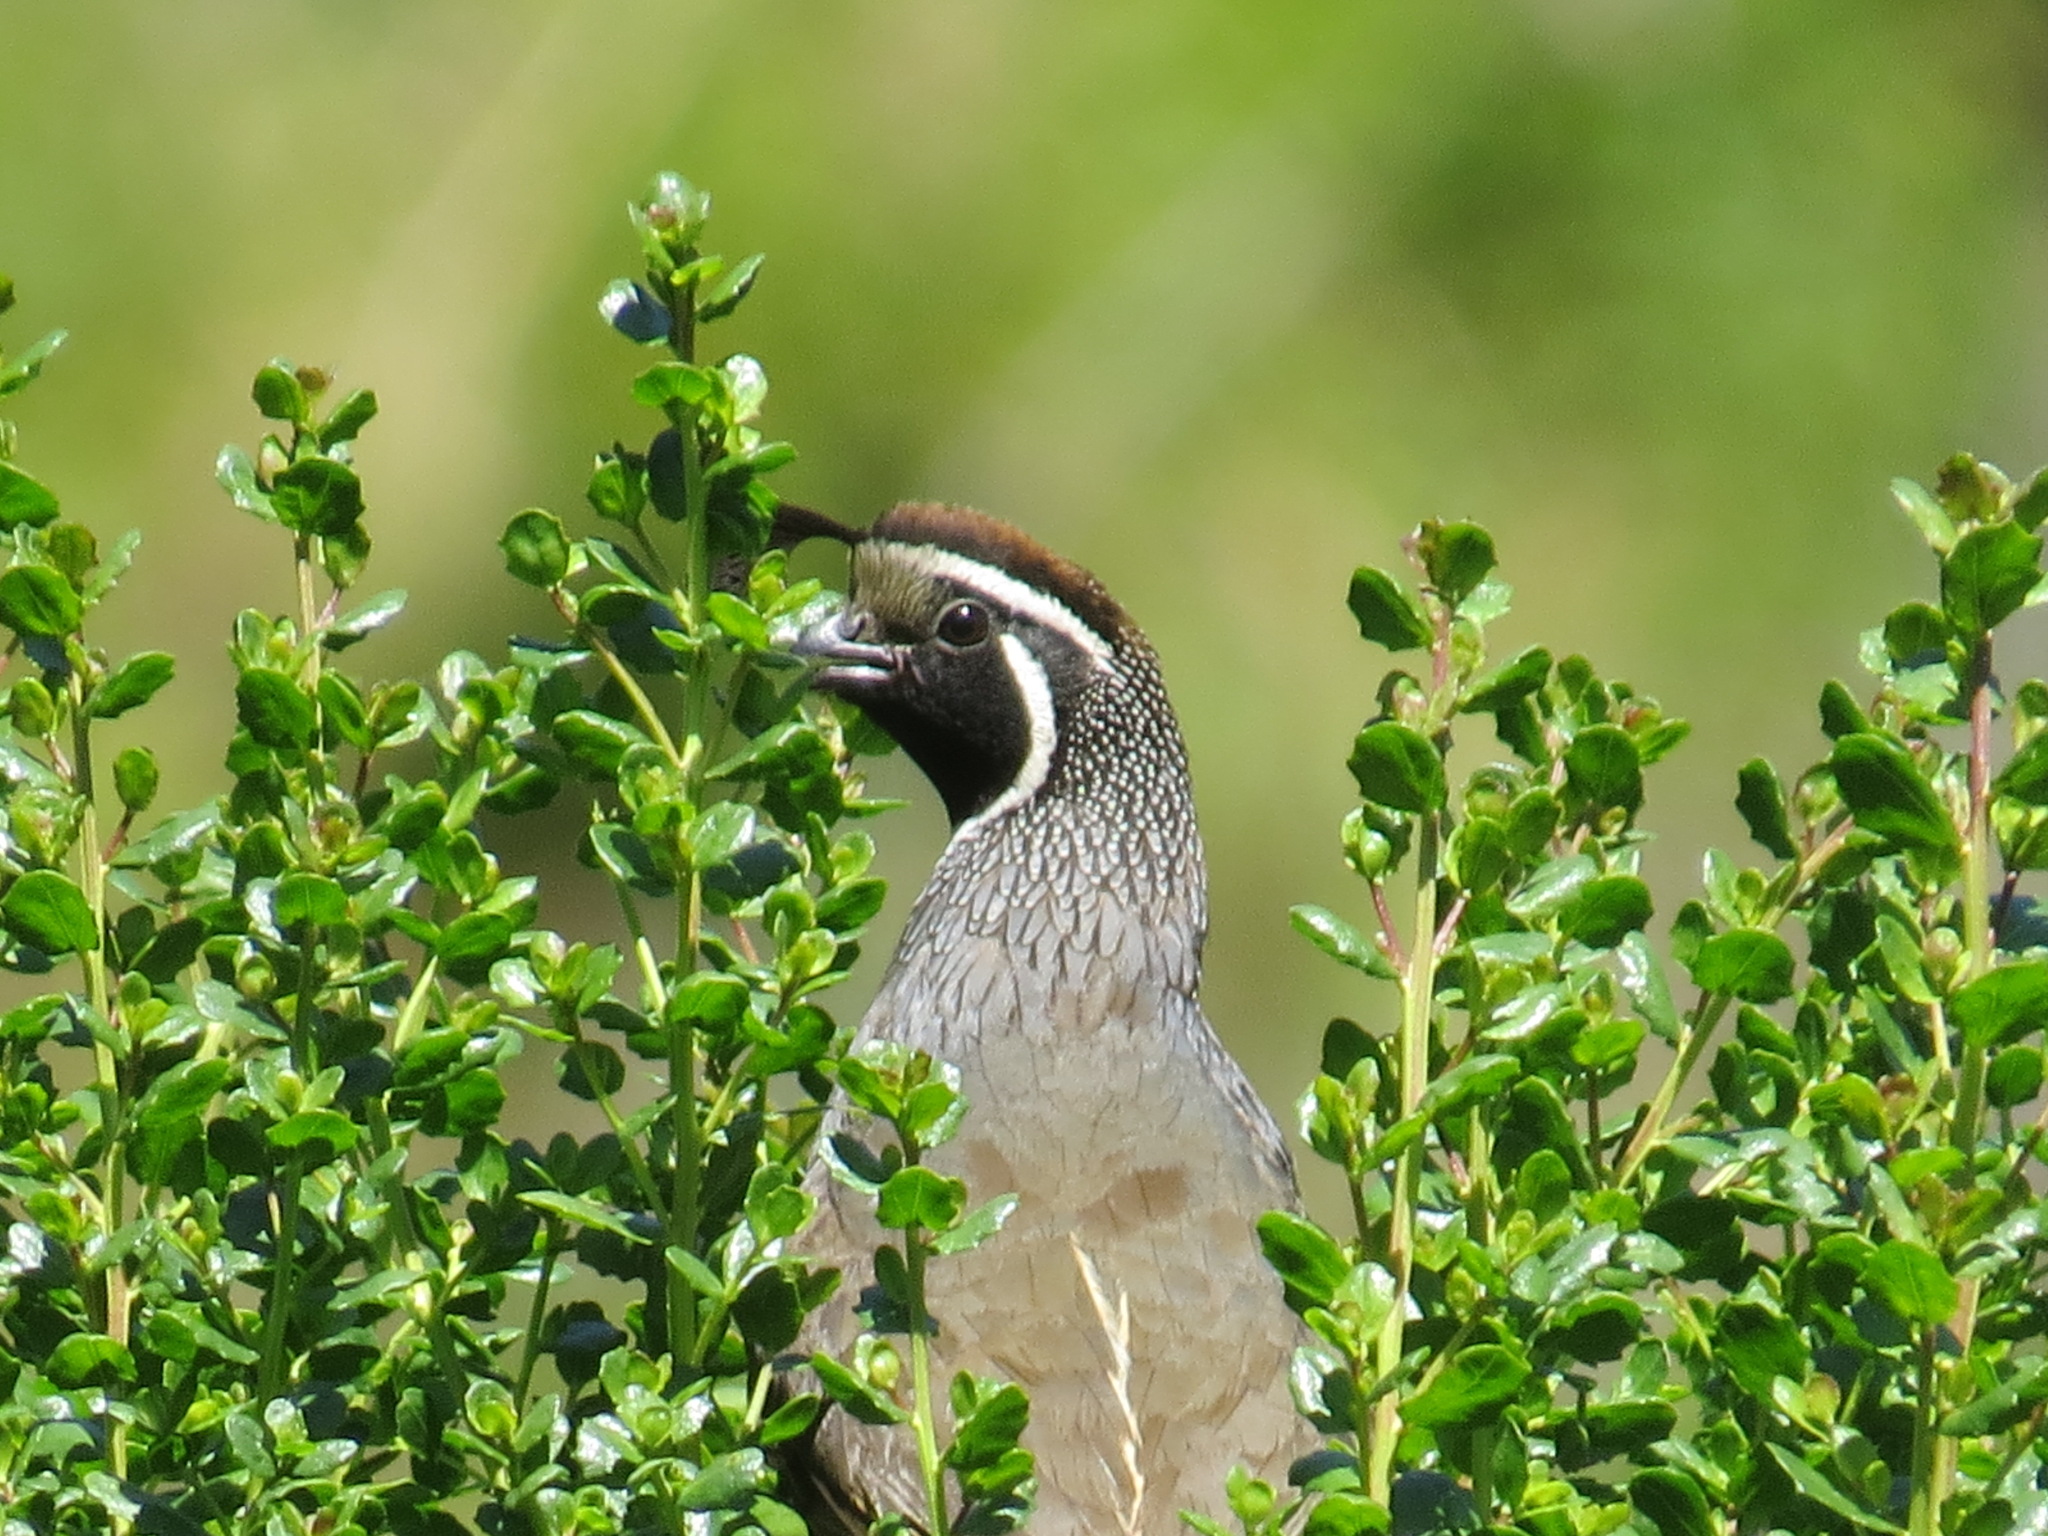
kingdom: Animalia
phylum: Chordata
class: Aves
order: Galliformes
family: Odontophoridae
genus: Callipepla
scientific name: Callipepla californica
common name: California quail
